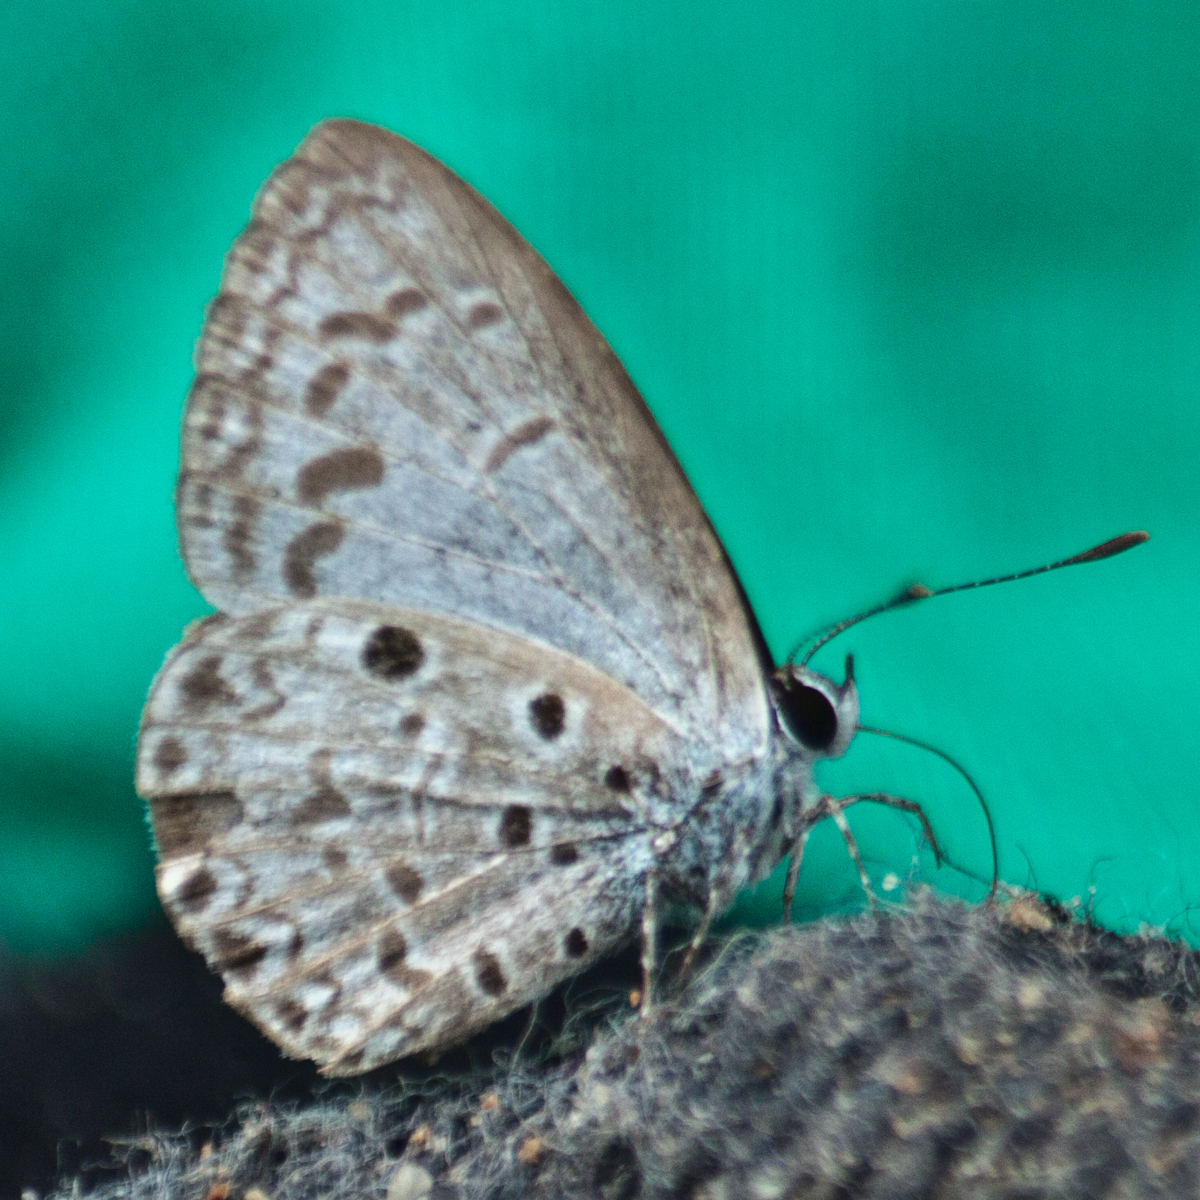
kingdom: Animalia
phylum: Arthropoda
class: Insecta
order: Lepidoptera
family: Lycaenidae
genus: Acytolepis
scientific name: Acytolepis puspa
